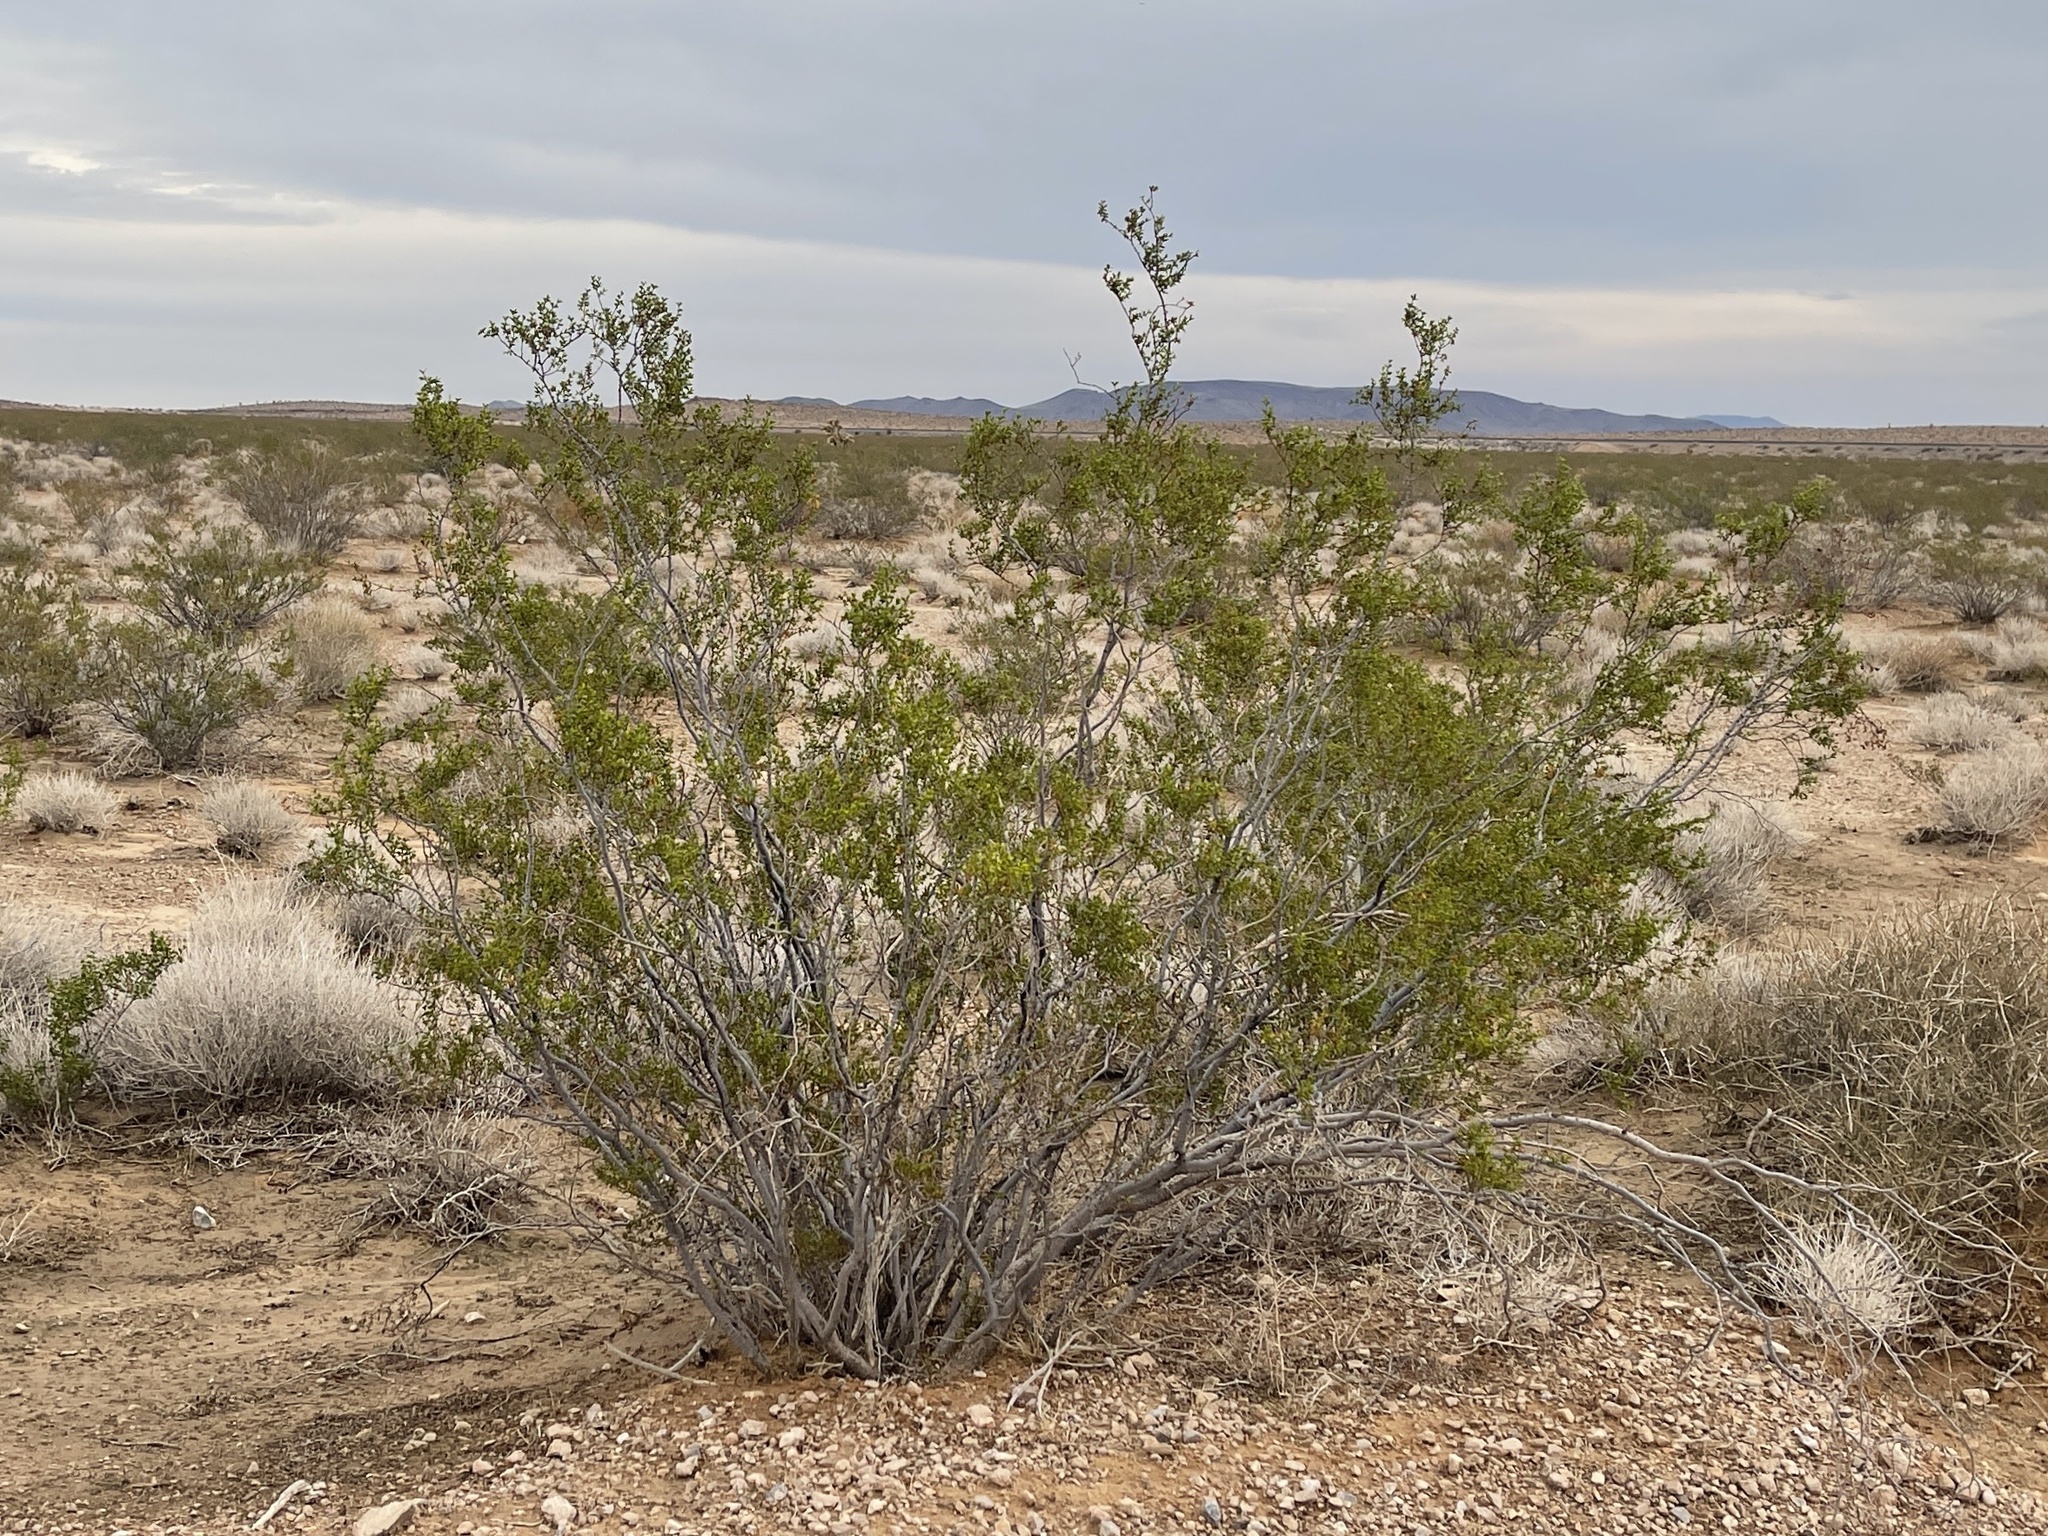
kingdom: Plantae
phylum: Tracheophyta
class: Magnoliopsida
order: Zygophyllales
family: Zygophyllaceae
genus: Larrea
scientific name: Larrea tridentata
